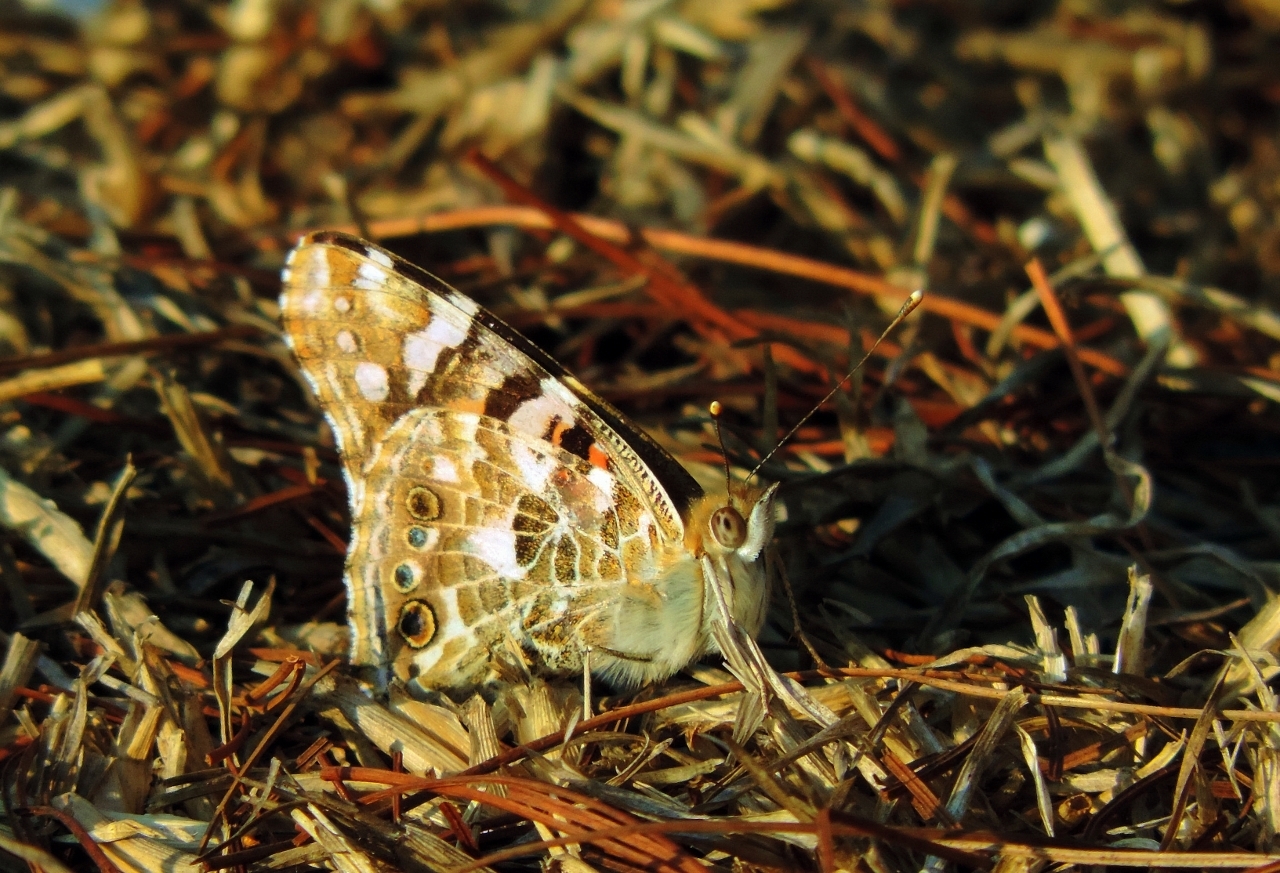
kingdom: Animalia
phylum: Arthropoda
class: Insecta
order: Lepidoptera
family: Nymphalidae
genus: Vanessa
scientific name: Vanessa cardui
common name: Painted lady
